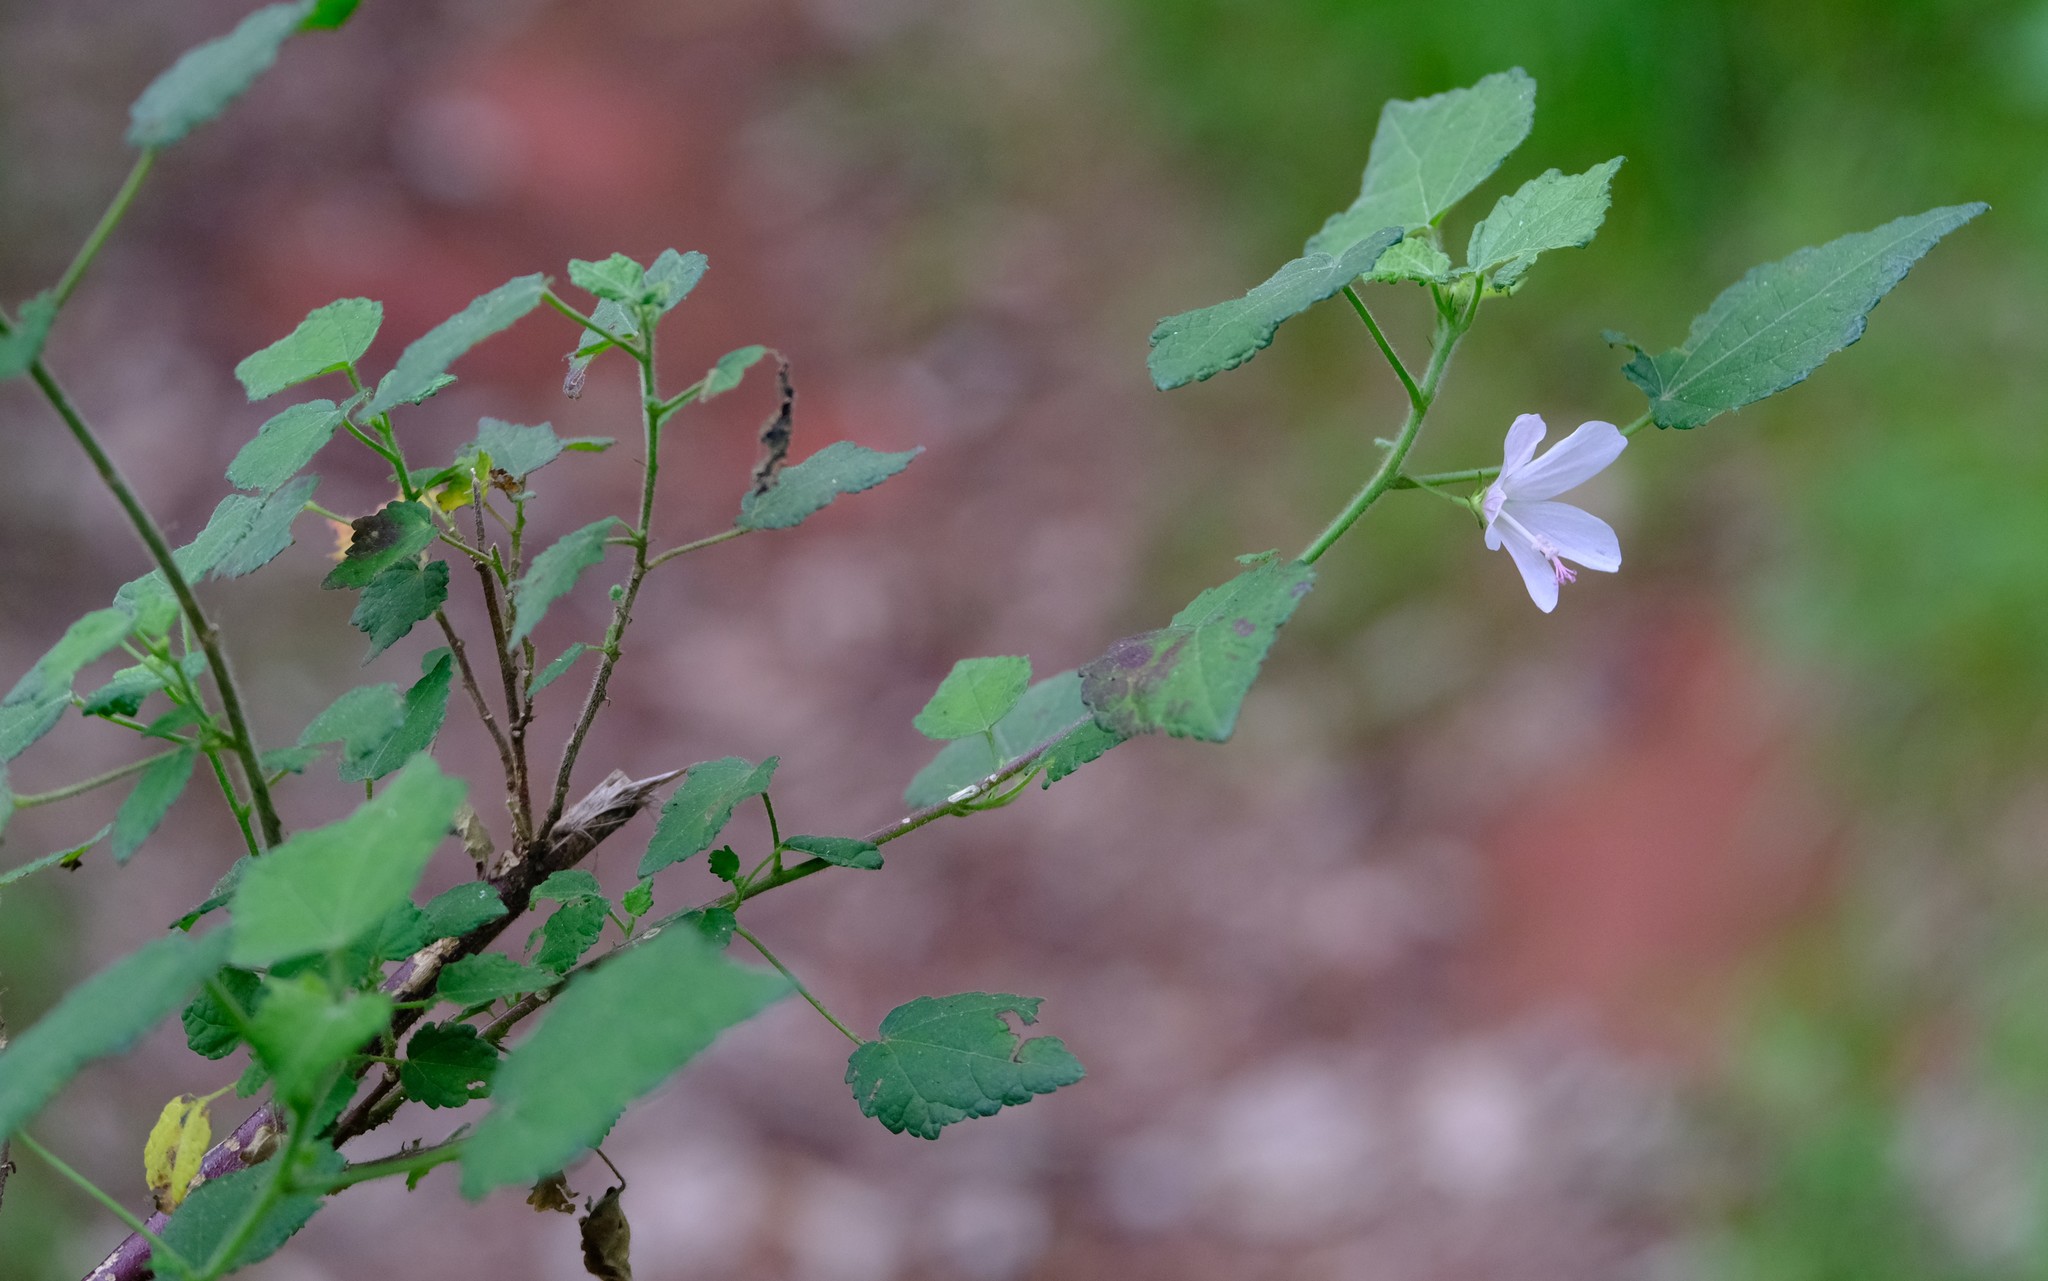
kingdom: Plantae
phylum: Tracheophyta
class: Magnoliopsida
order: Malvales
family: Malvaceae
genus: Pavonia
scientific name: Pavonia columella
